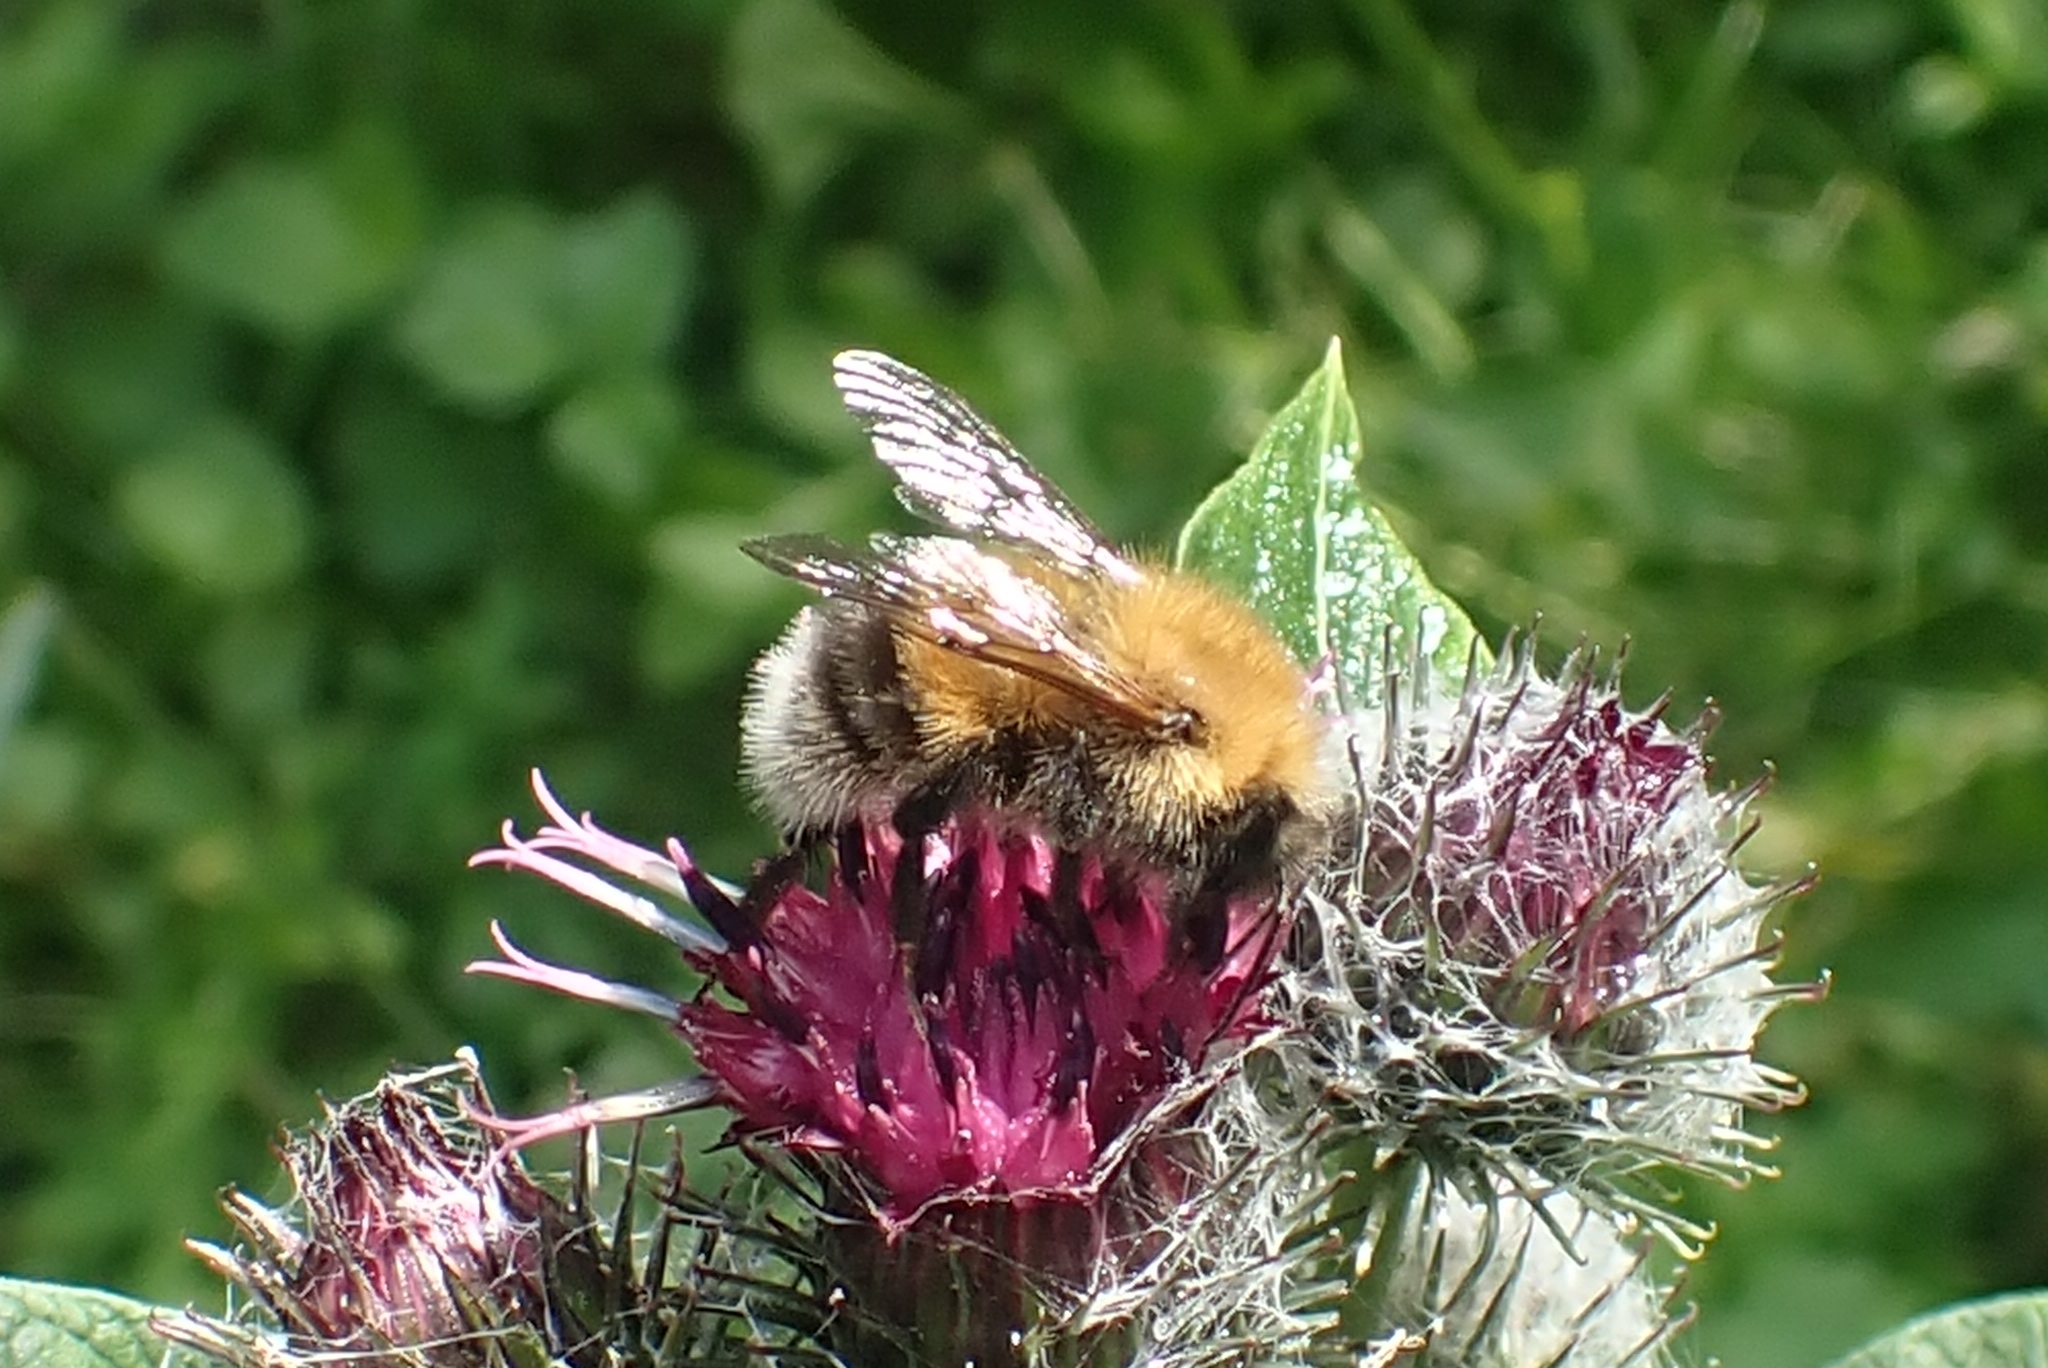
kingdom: Animalia
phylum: Arthropoda
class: Insecta
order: Hymenoptera
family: Apidae
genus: Bombus
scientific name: Bombus hypnorum
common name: New garden bumblebee
